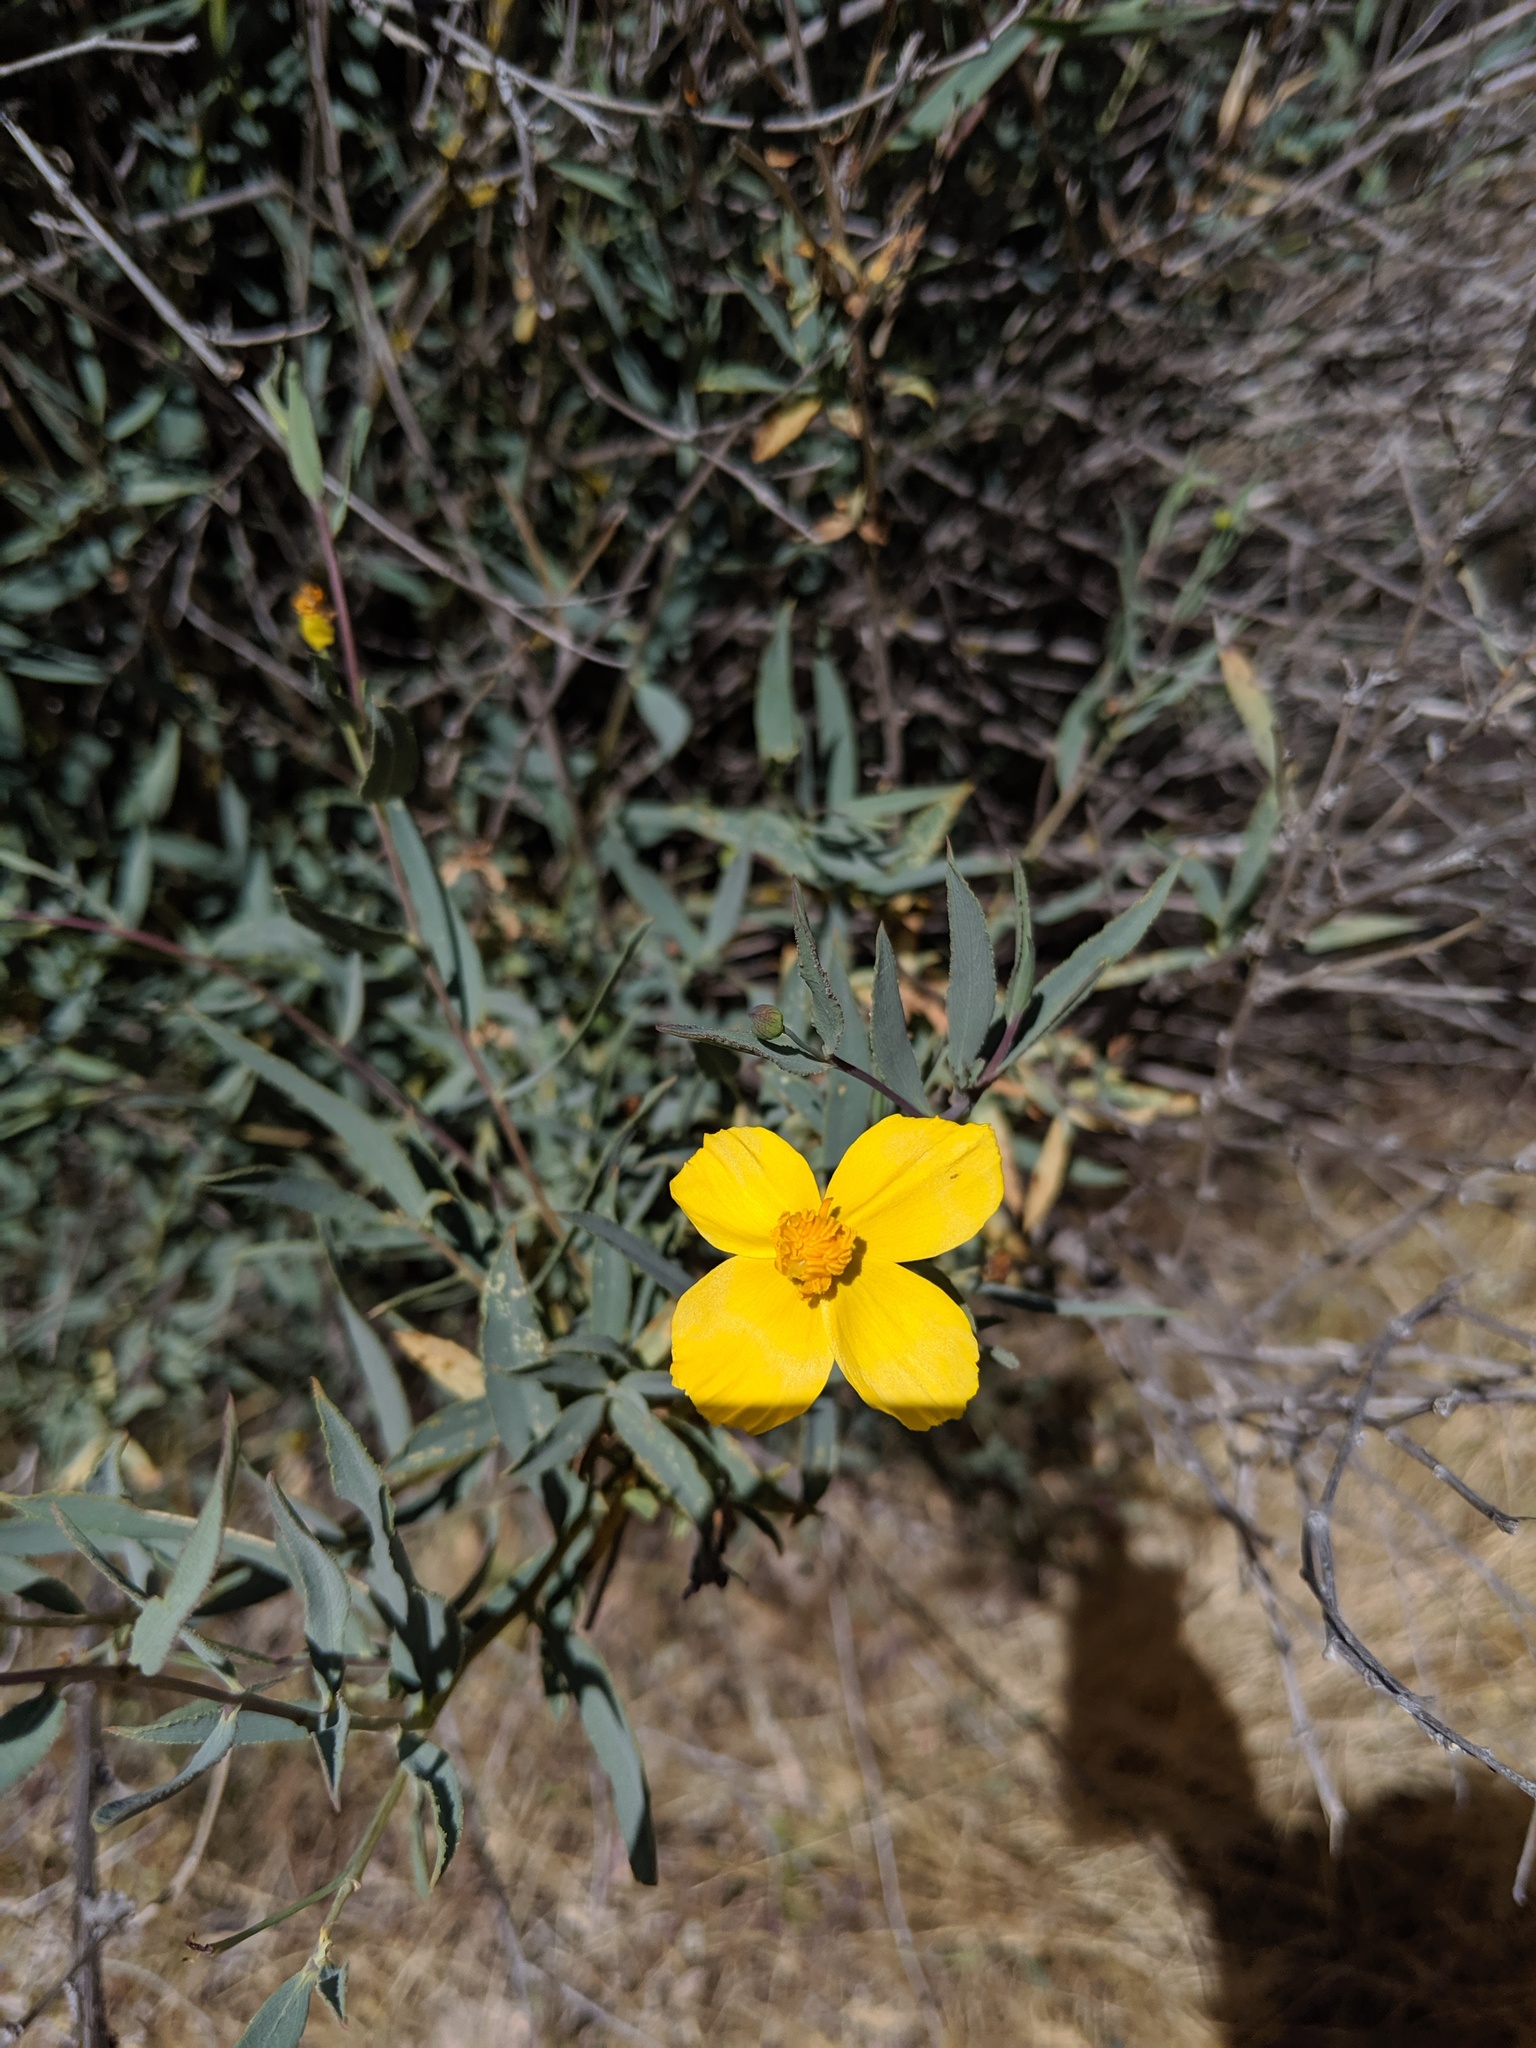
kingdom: Plantae
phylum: Tracheophyta
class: Magnoliopsida
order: Ranunculales
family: Papaveraceae
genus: Dendromecon
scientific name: Dendromecon rigida
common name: Tree poppy
